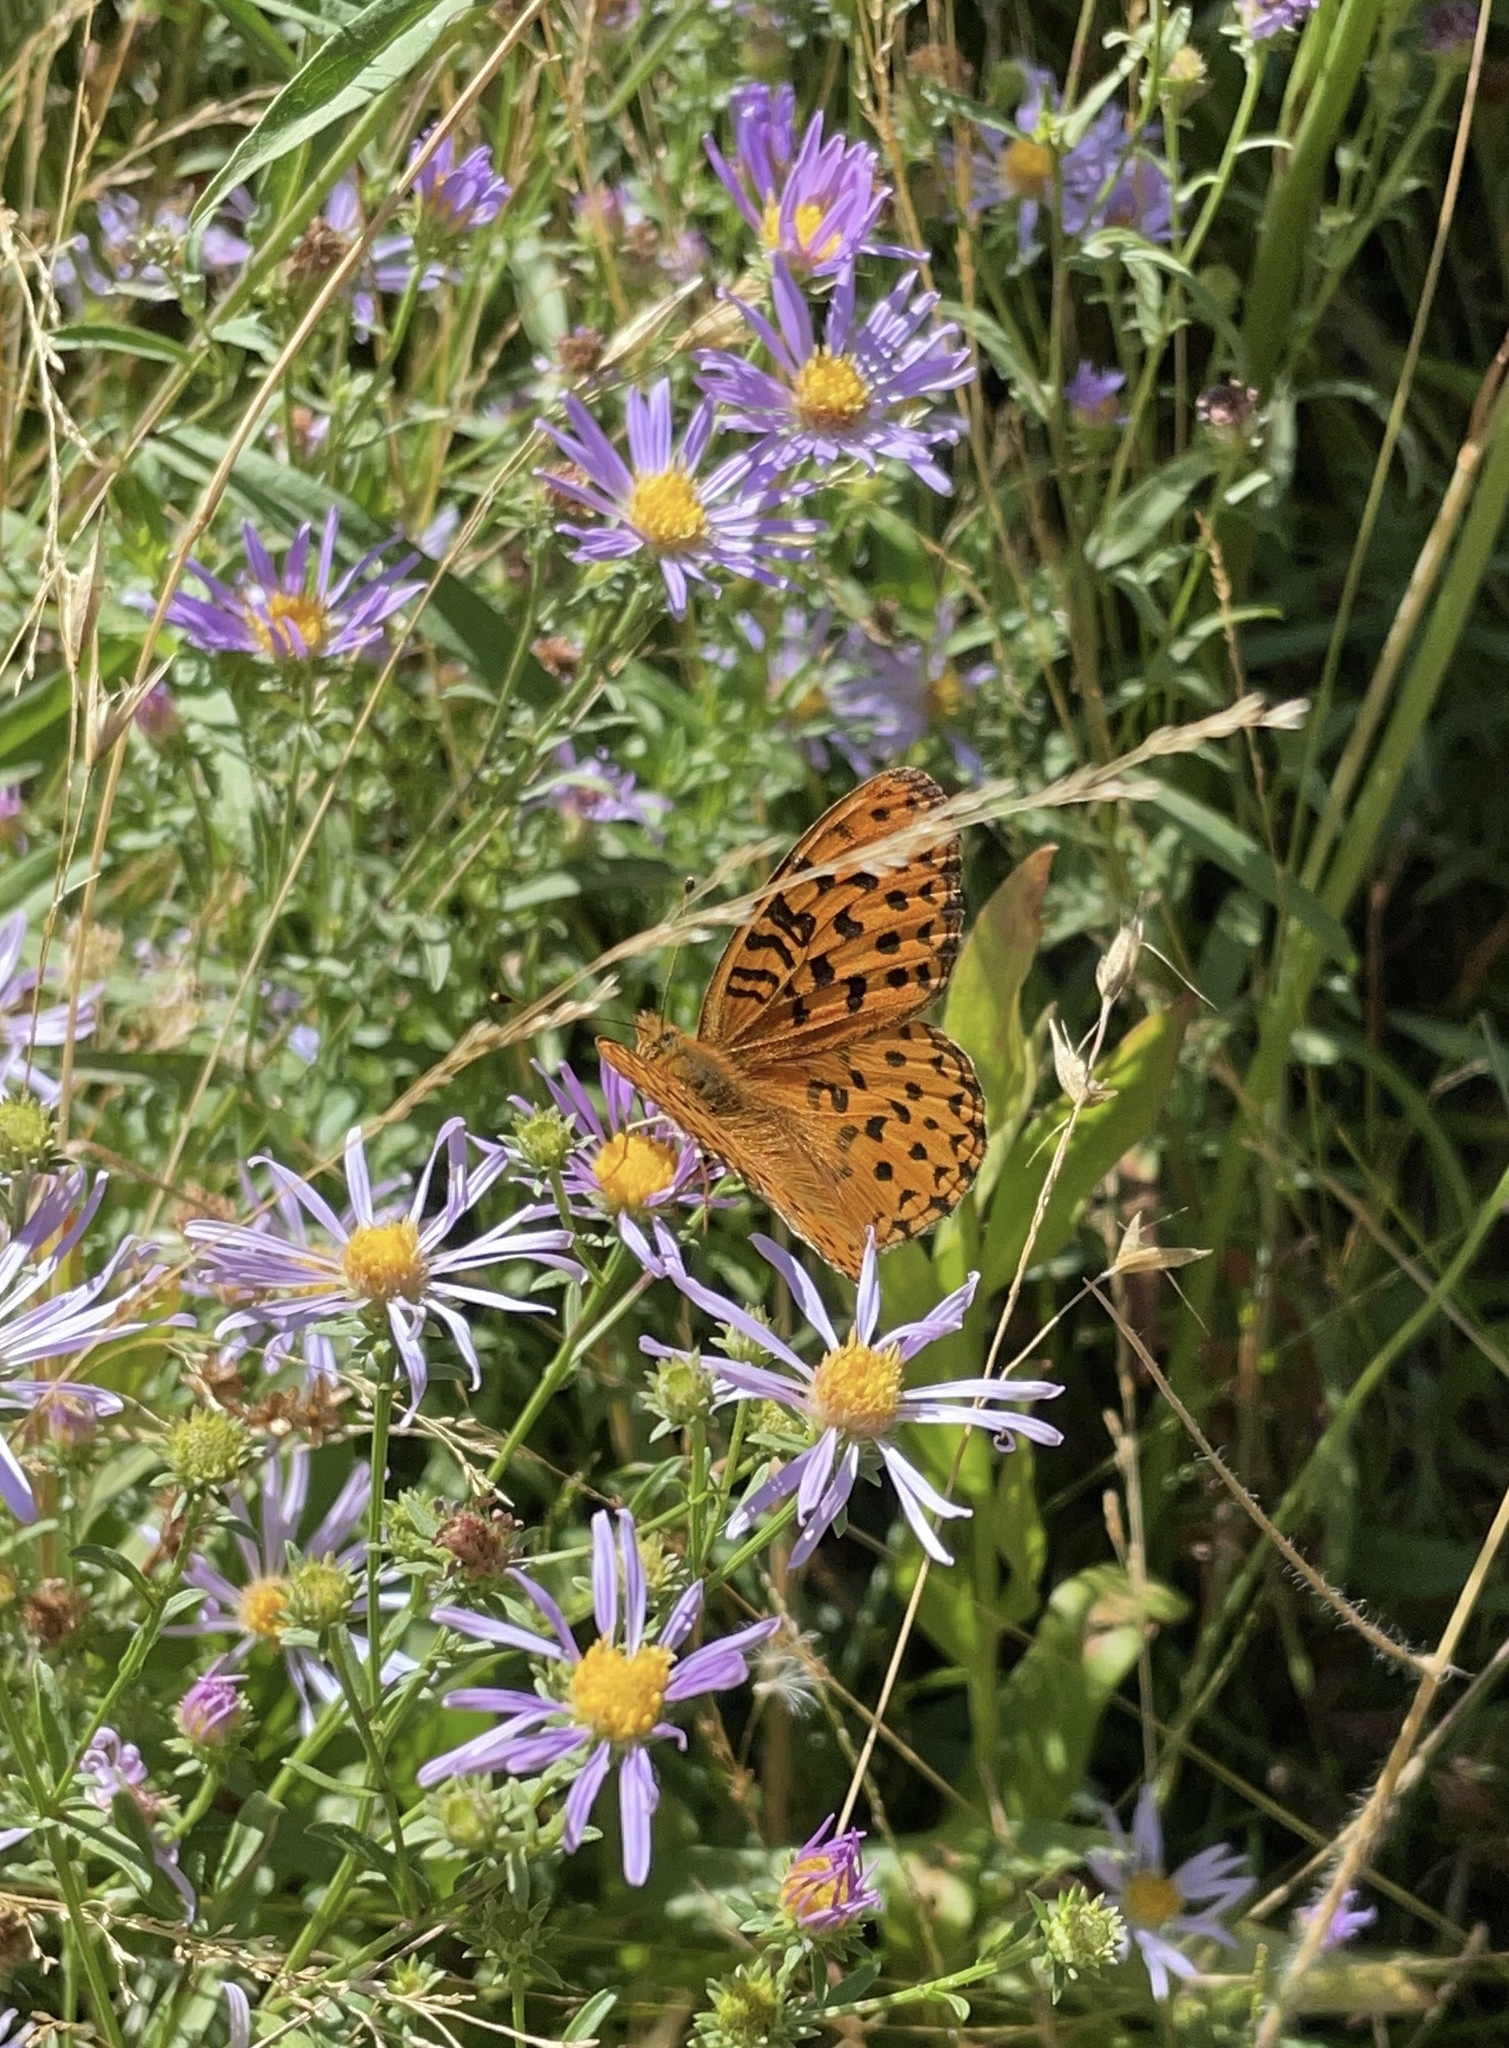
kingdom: Animalia
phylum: Arthropoda
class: Insecta
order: Lepidoptera
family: Nymphalidae
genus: Speyeria
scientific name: Speyeria mormonia
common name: Mormon fritillary
